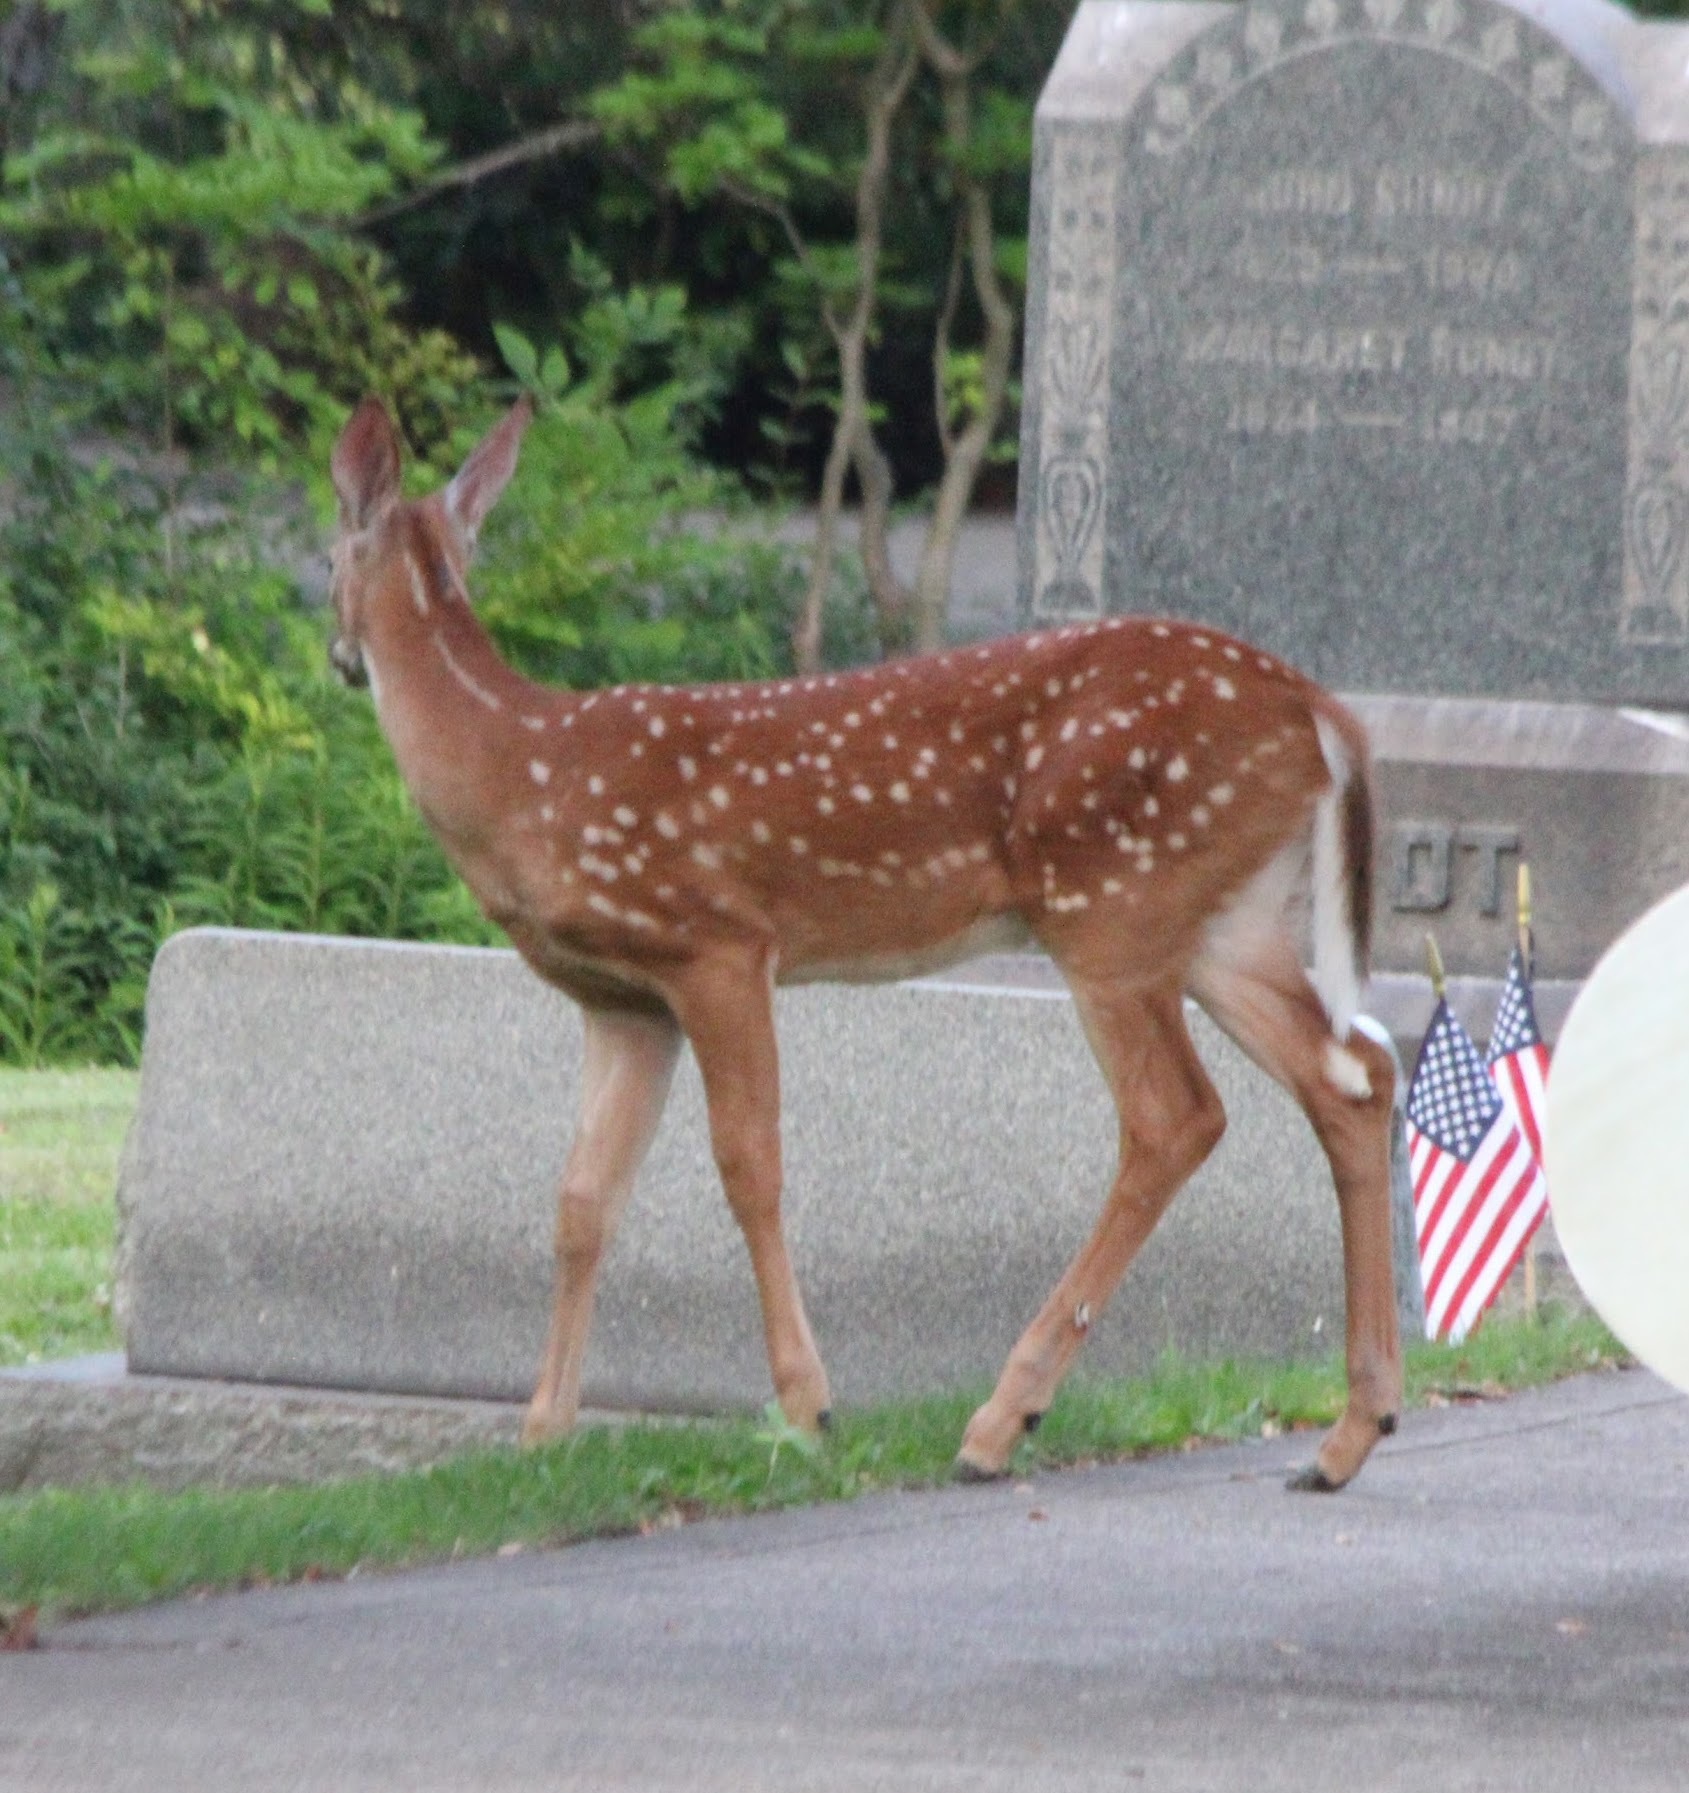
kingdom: Animalia
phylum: Chordata
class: Mammalia
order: Artiodactyla
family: Cervidae
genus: Odocoileus
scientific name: Odocoileus virginianus
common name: White-tailed deer
